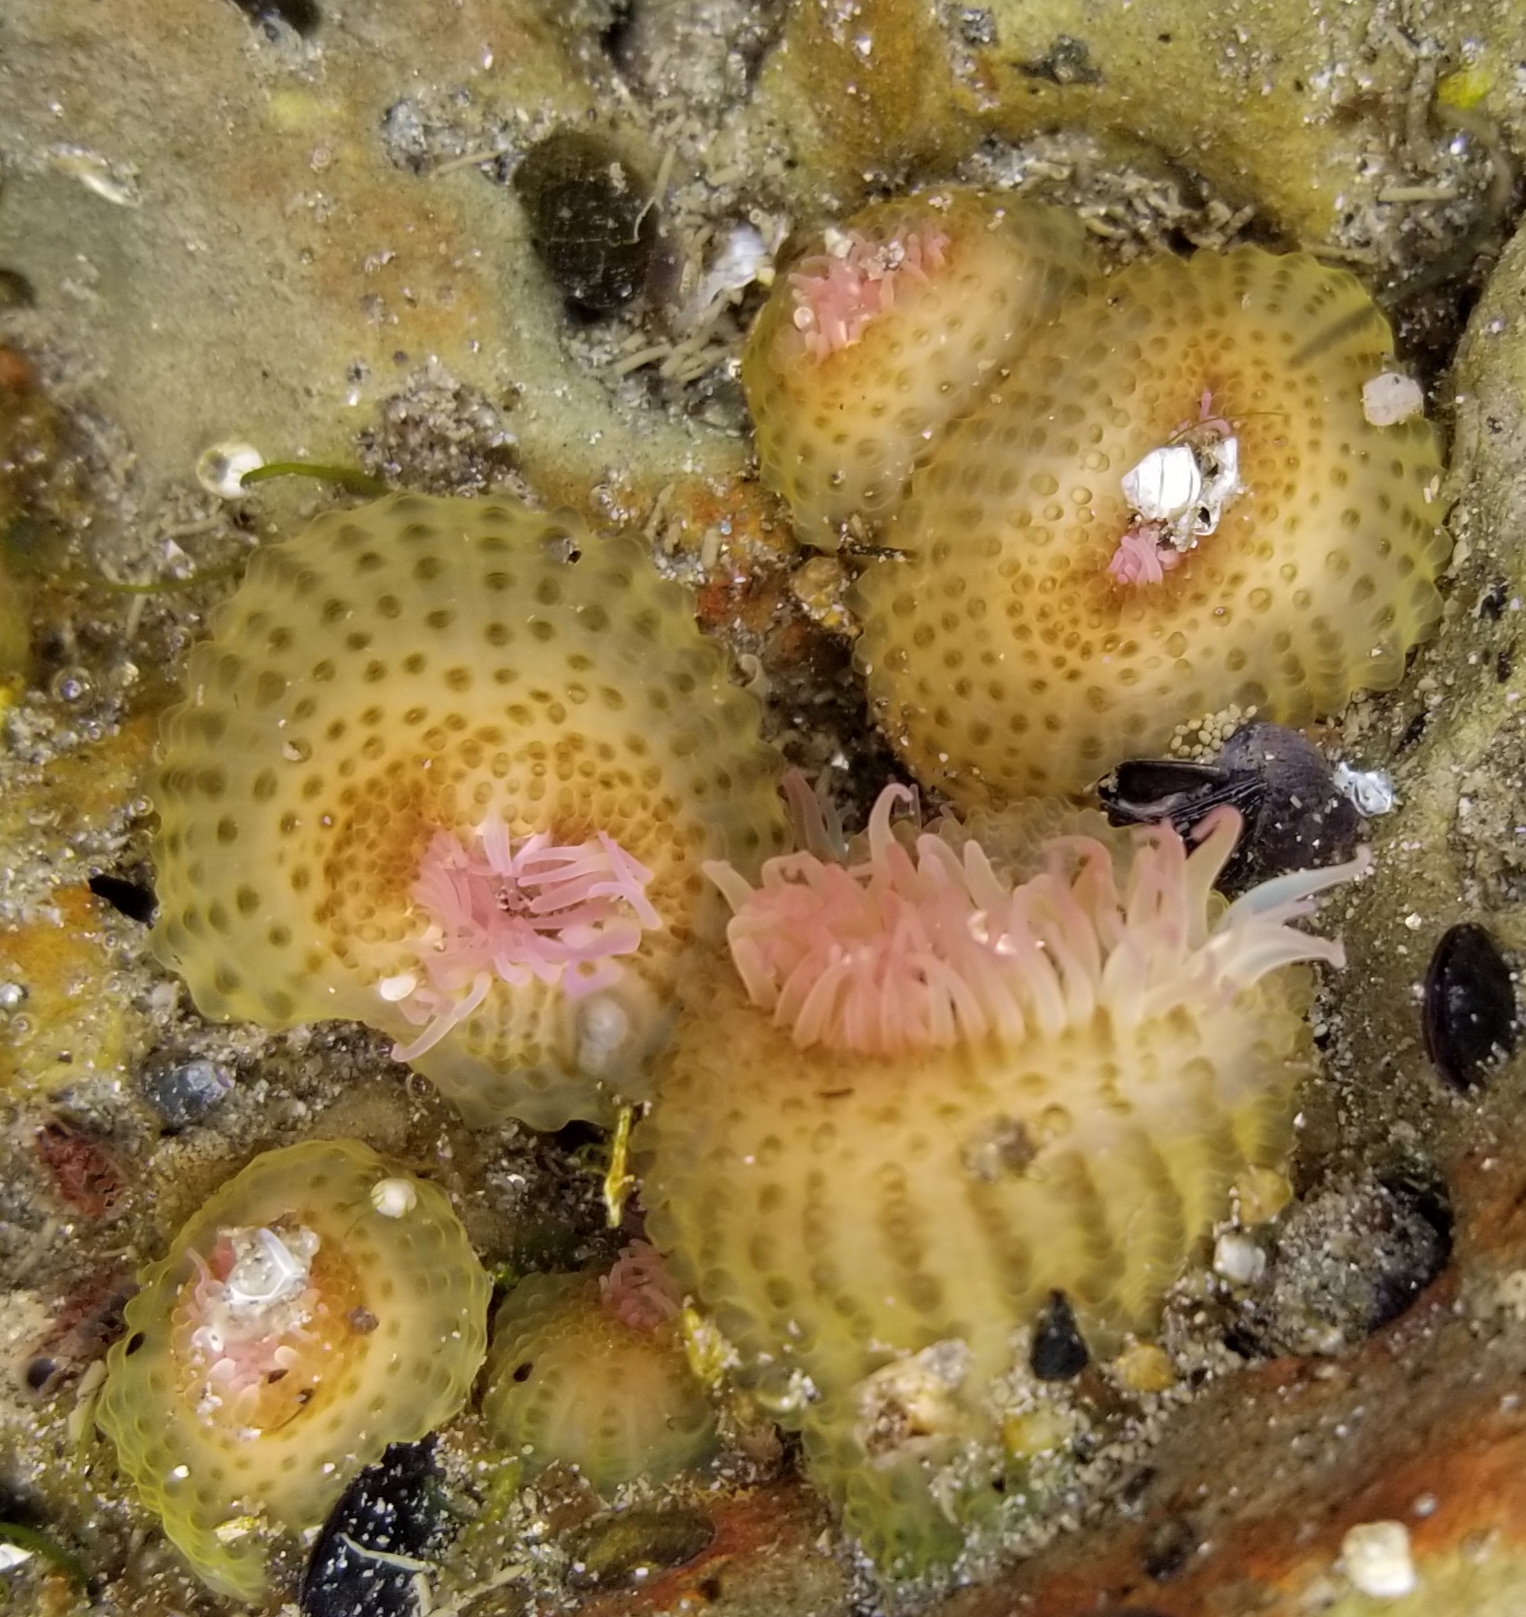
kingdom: Animalia
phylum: Cnidaria
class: Anthozoa
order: Actiniaria
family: Actiniidae
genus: Anthopleura
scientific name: Anthopleura elegantissima
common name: Clonal anemone
